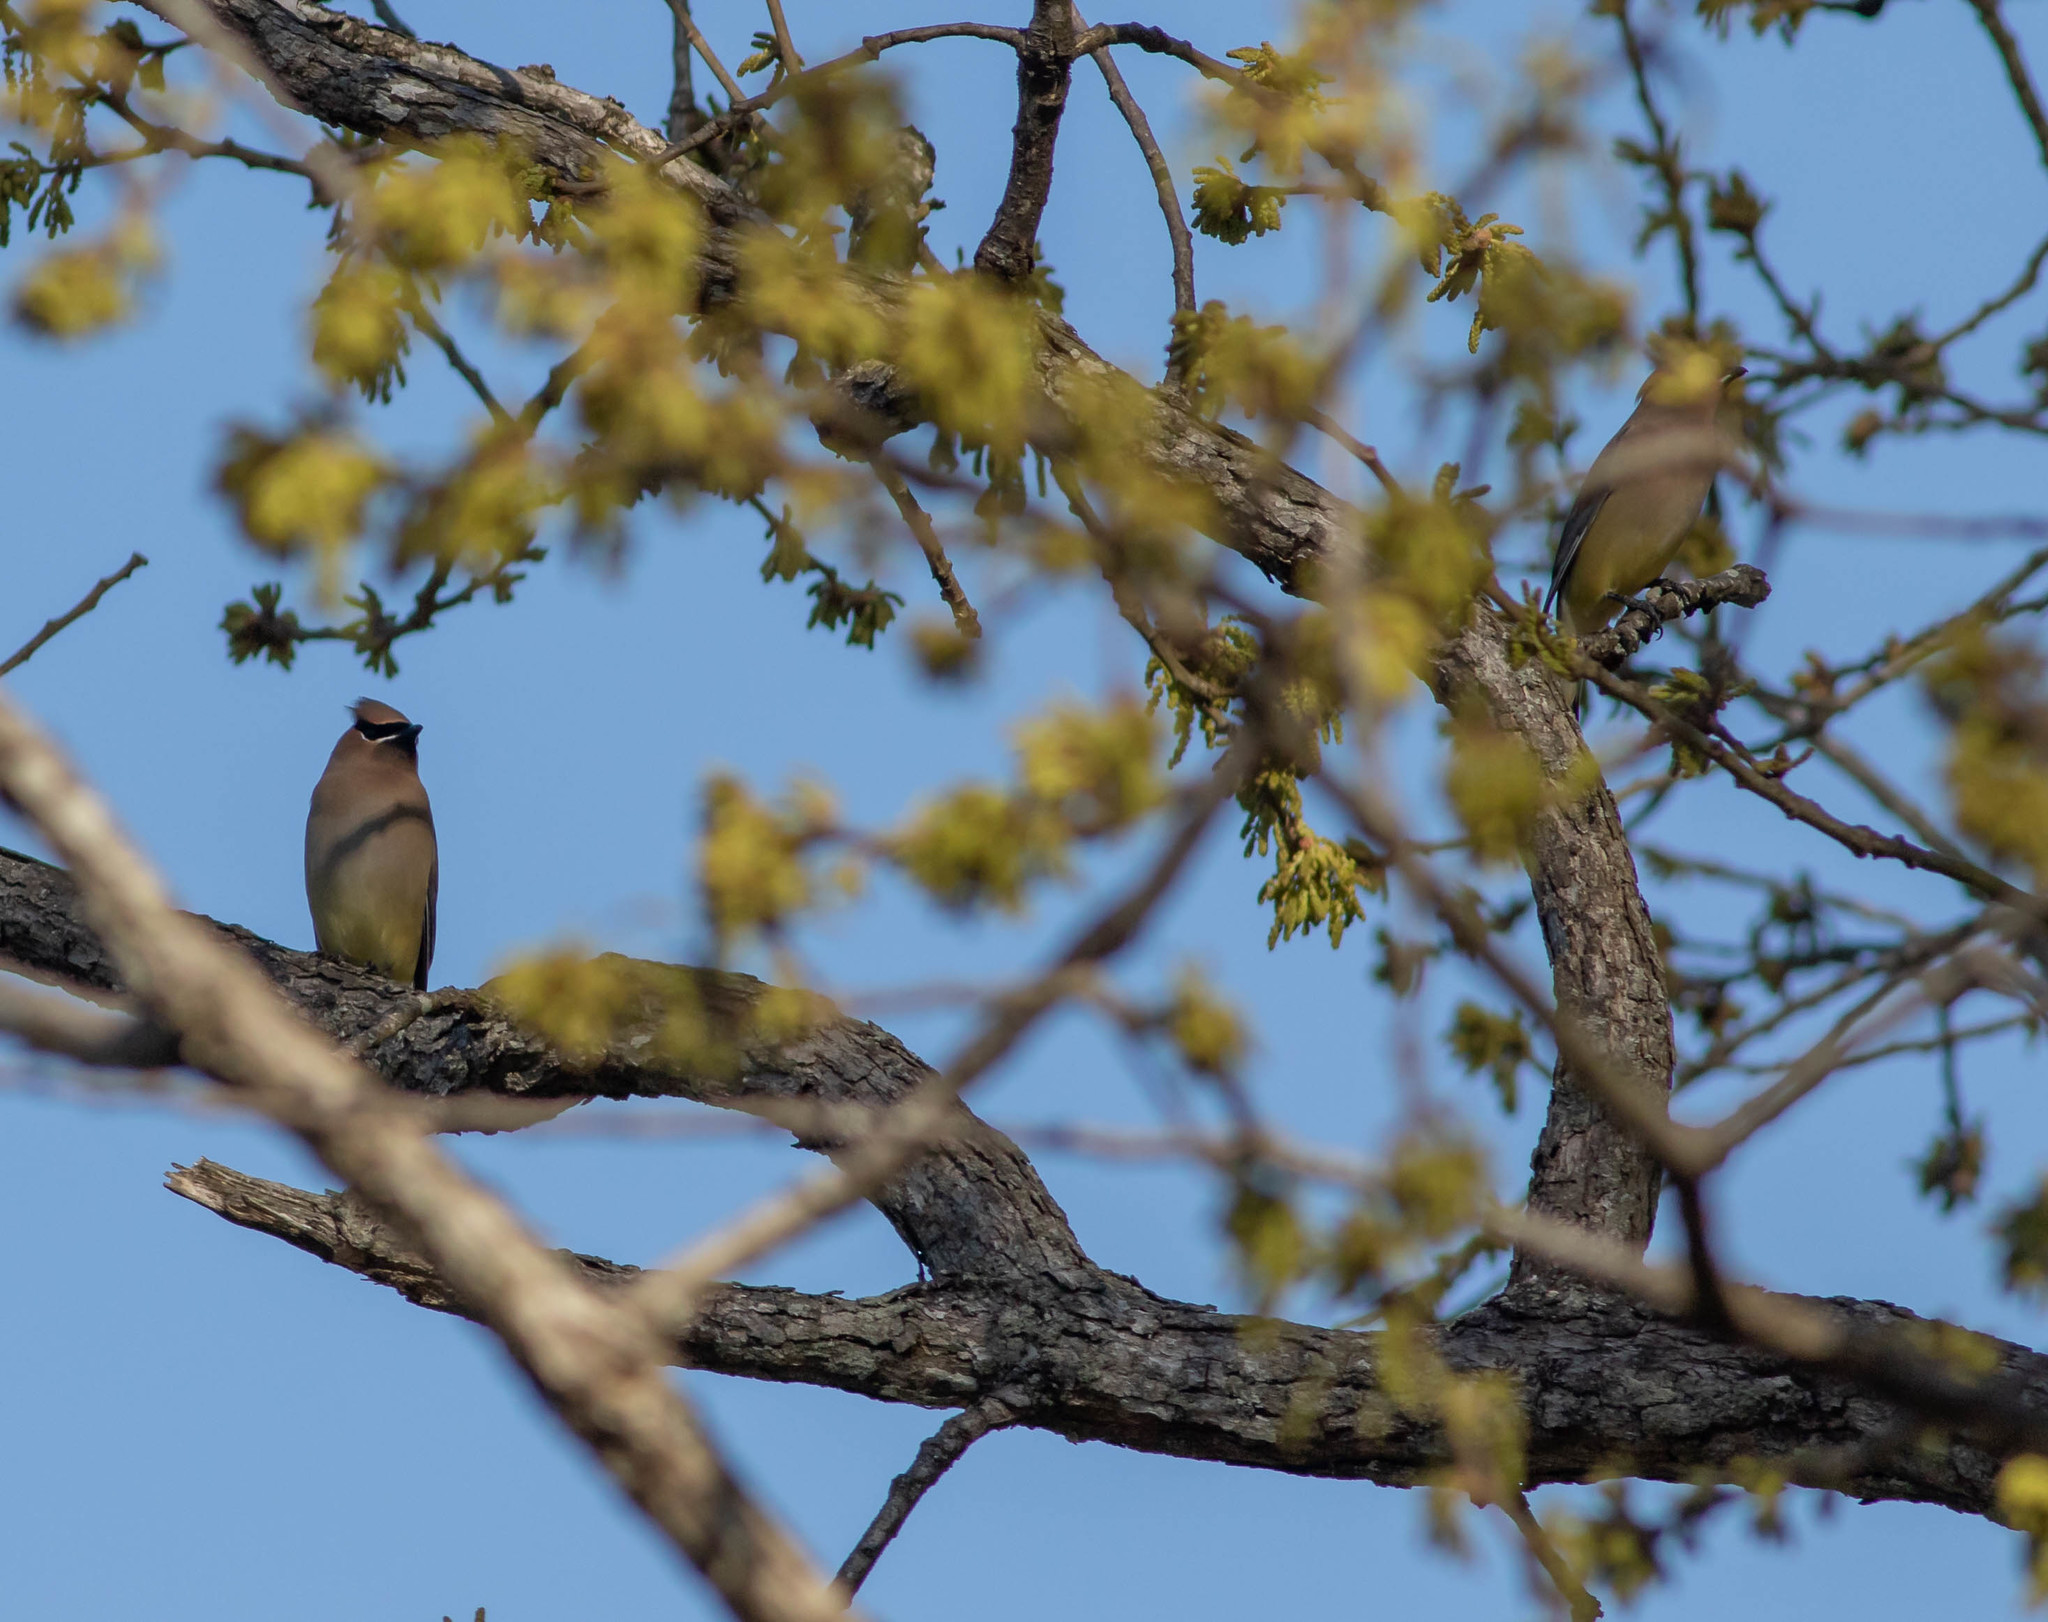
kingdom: Animalia
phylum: Chordata
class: Aves
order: Passeriformes
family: Bombycillidae
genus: Bombycilla
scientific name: Bombycilla cedrorum
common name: Cedar waxwing
